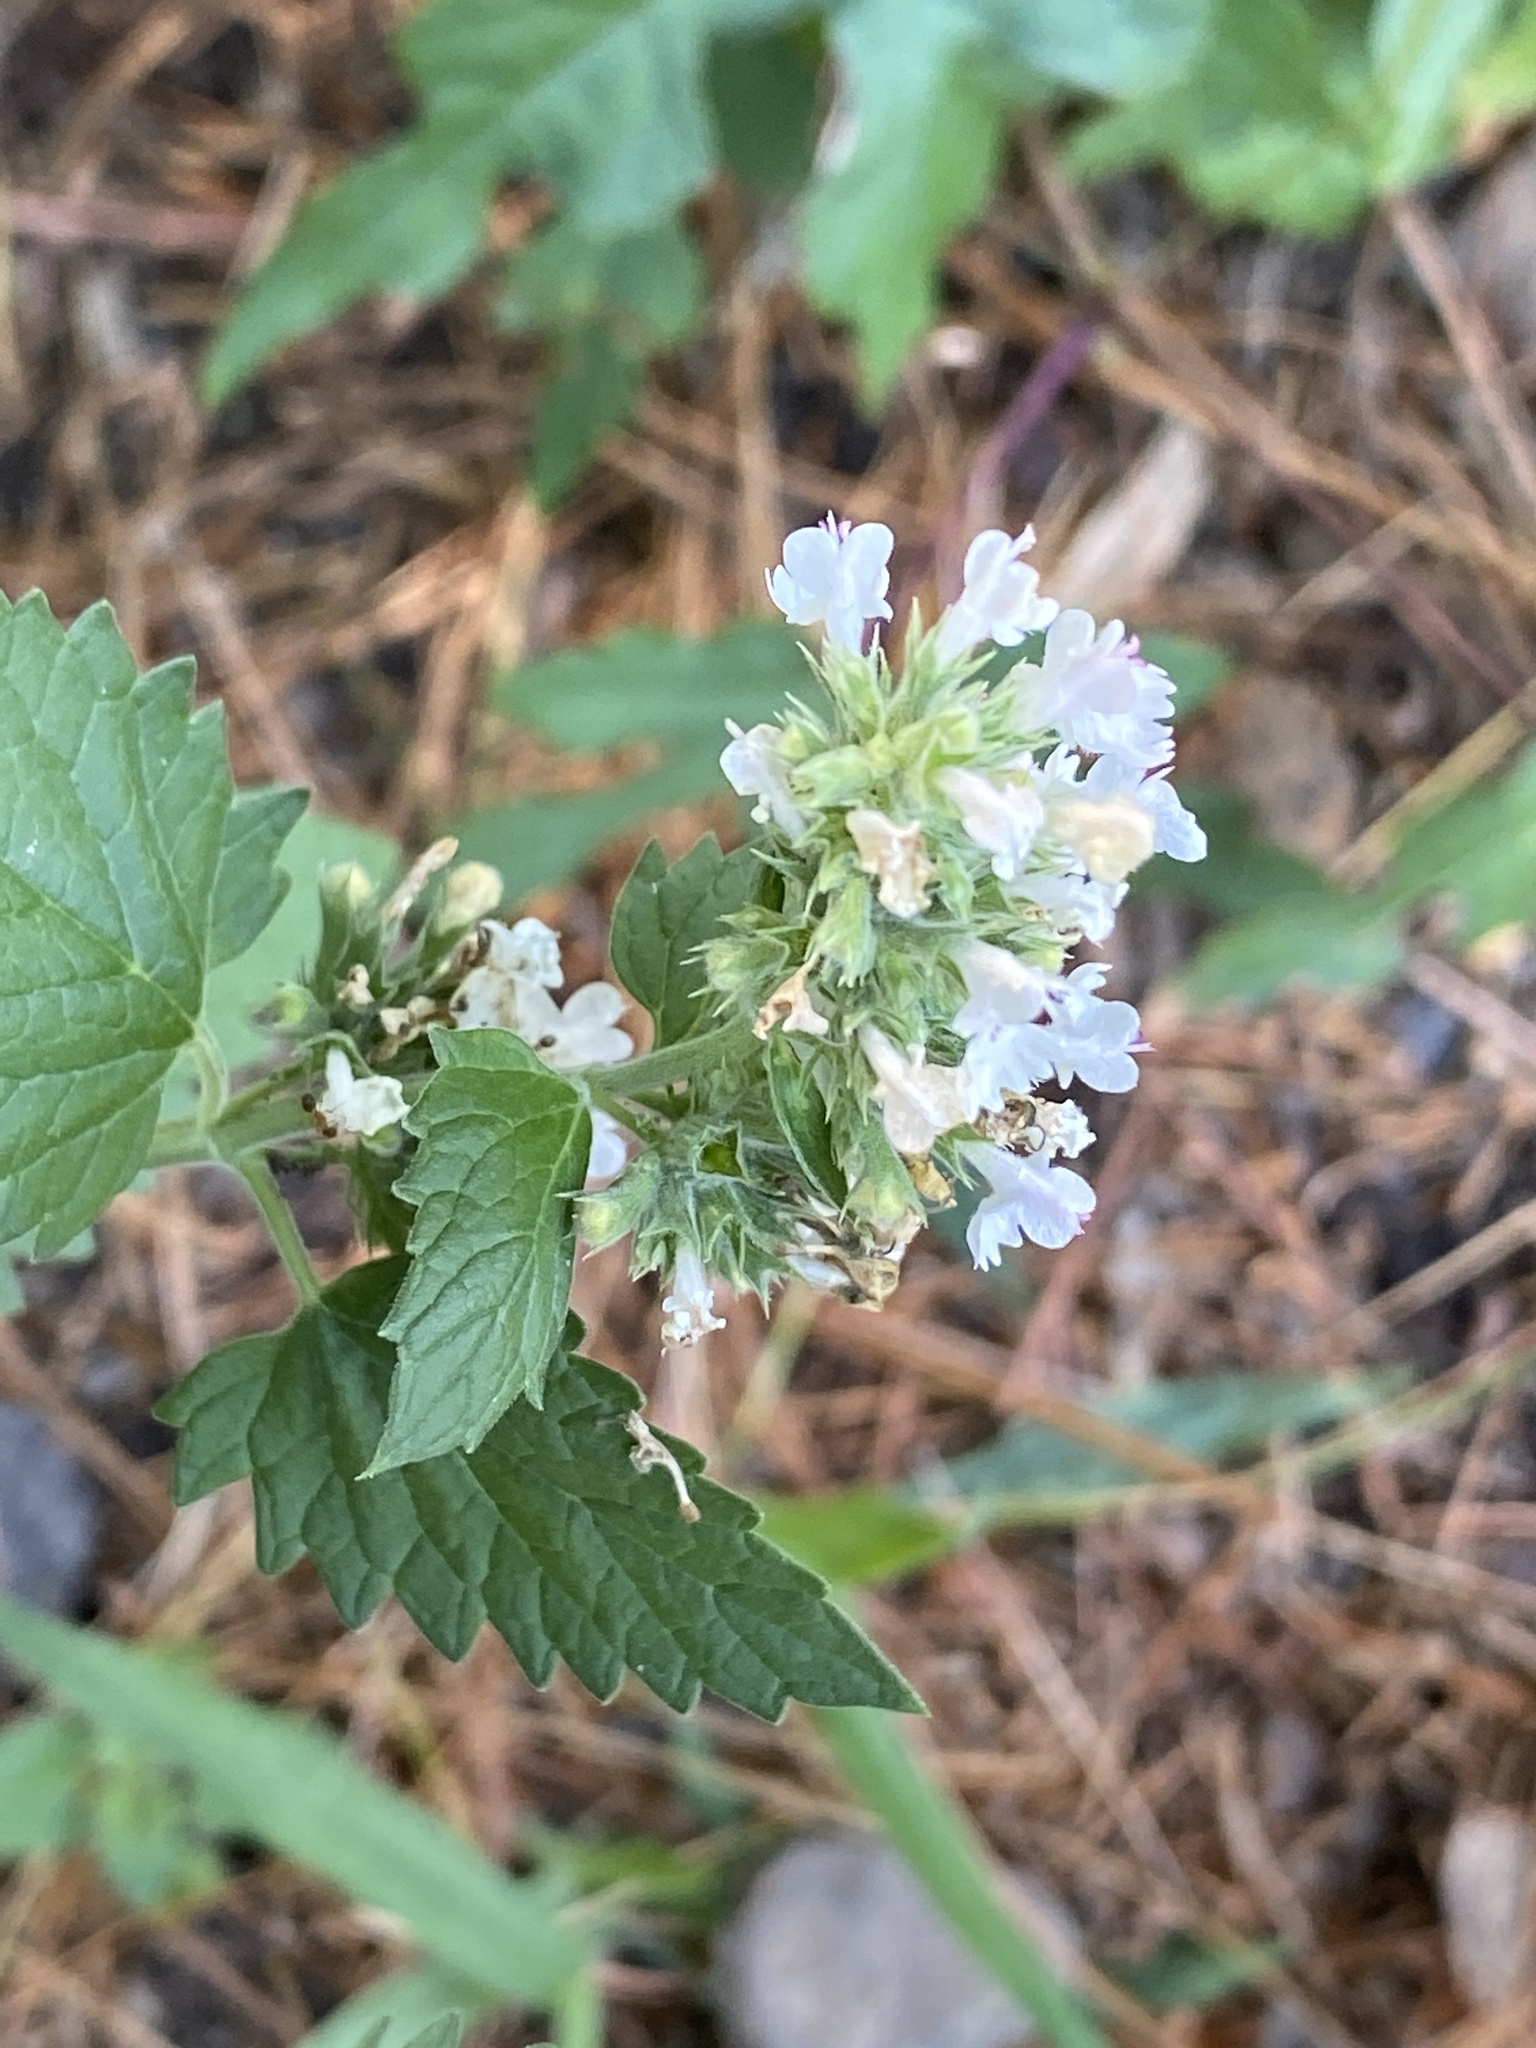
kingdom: Plantae
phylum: Tracheophyta
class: Magnoliopsida
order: Lamiales
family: Lamiaceae
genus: Nepeta
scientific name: Nepeta cataria
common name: Catnip
